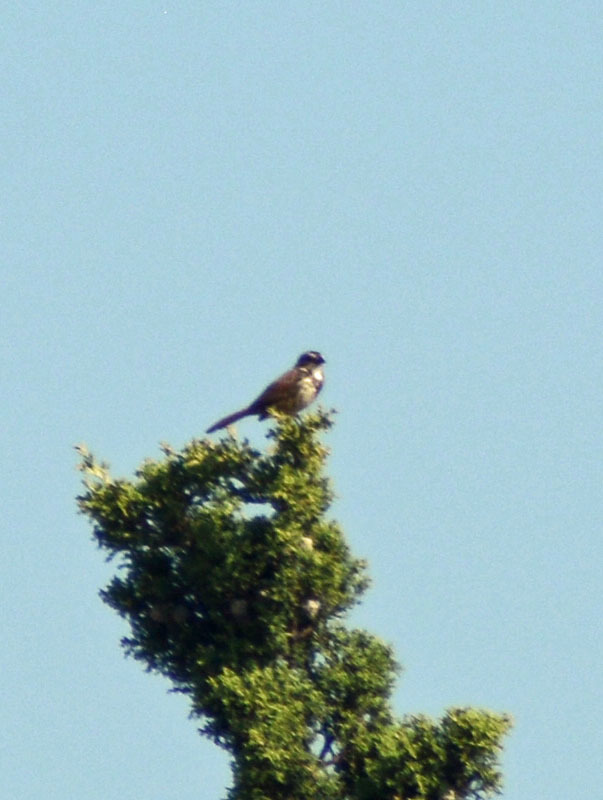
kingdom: Animalia
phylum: Chordata
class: Aves
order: Passeriformes
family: Passerellidae
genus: Melospiza
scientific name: Melospiza melodia
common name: Song sparrow
